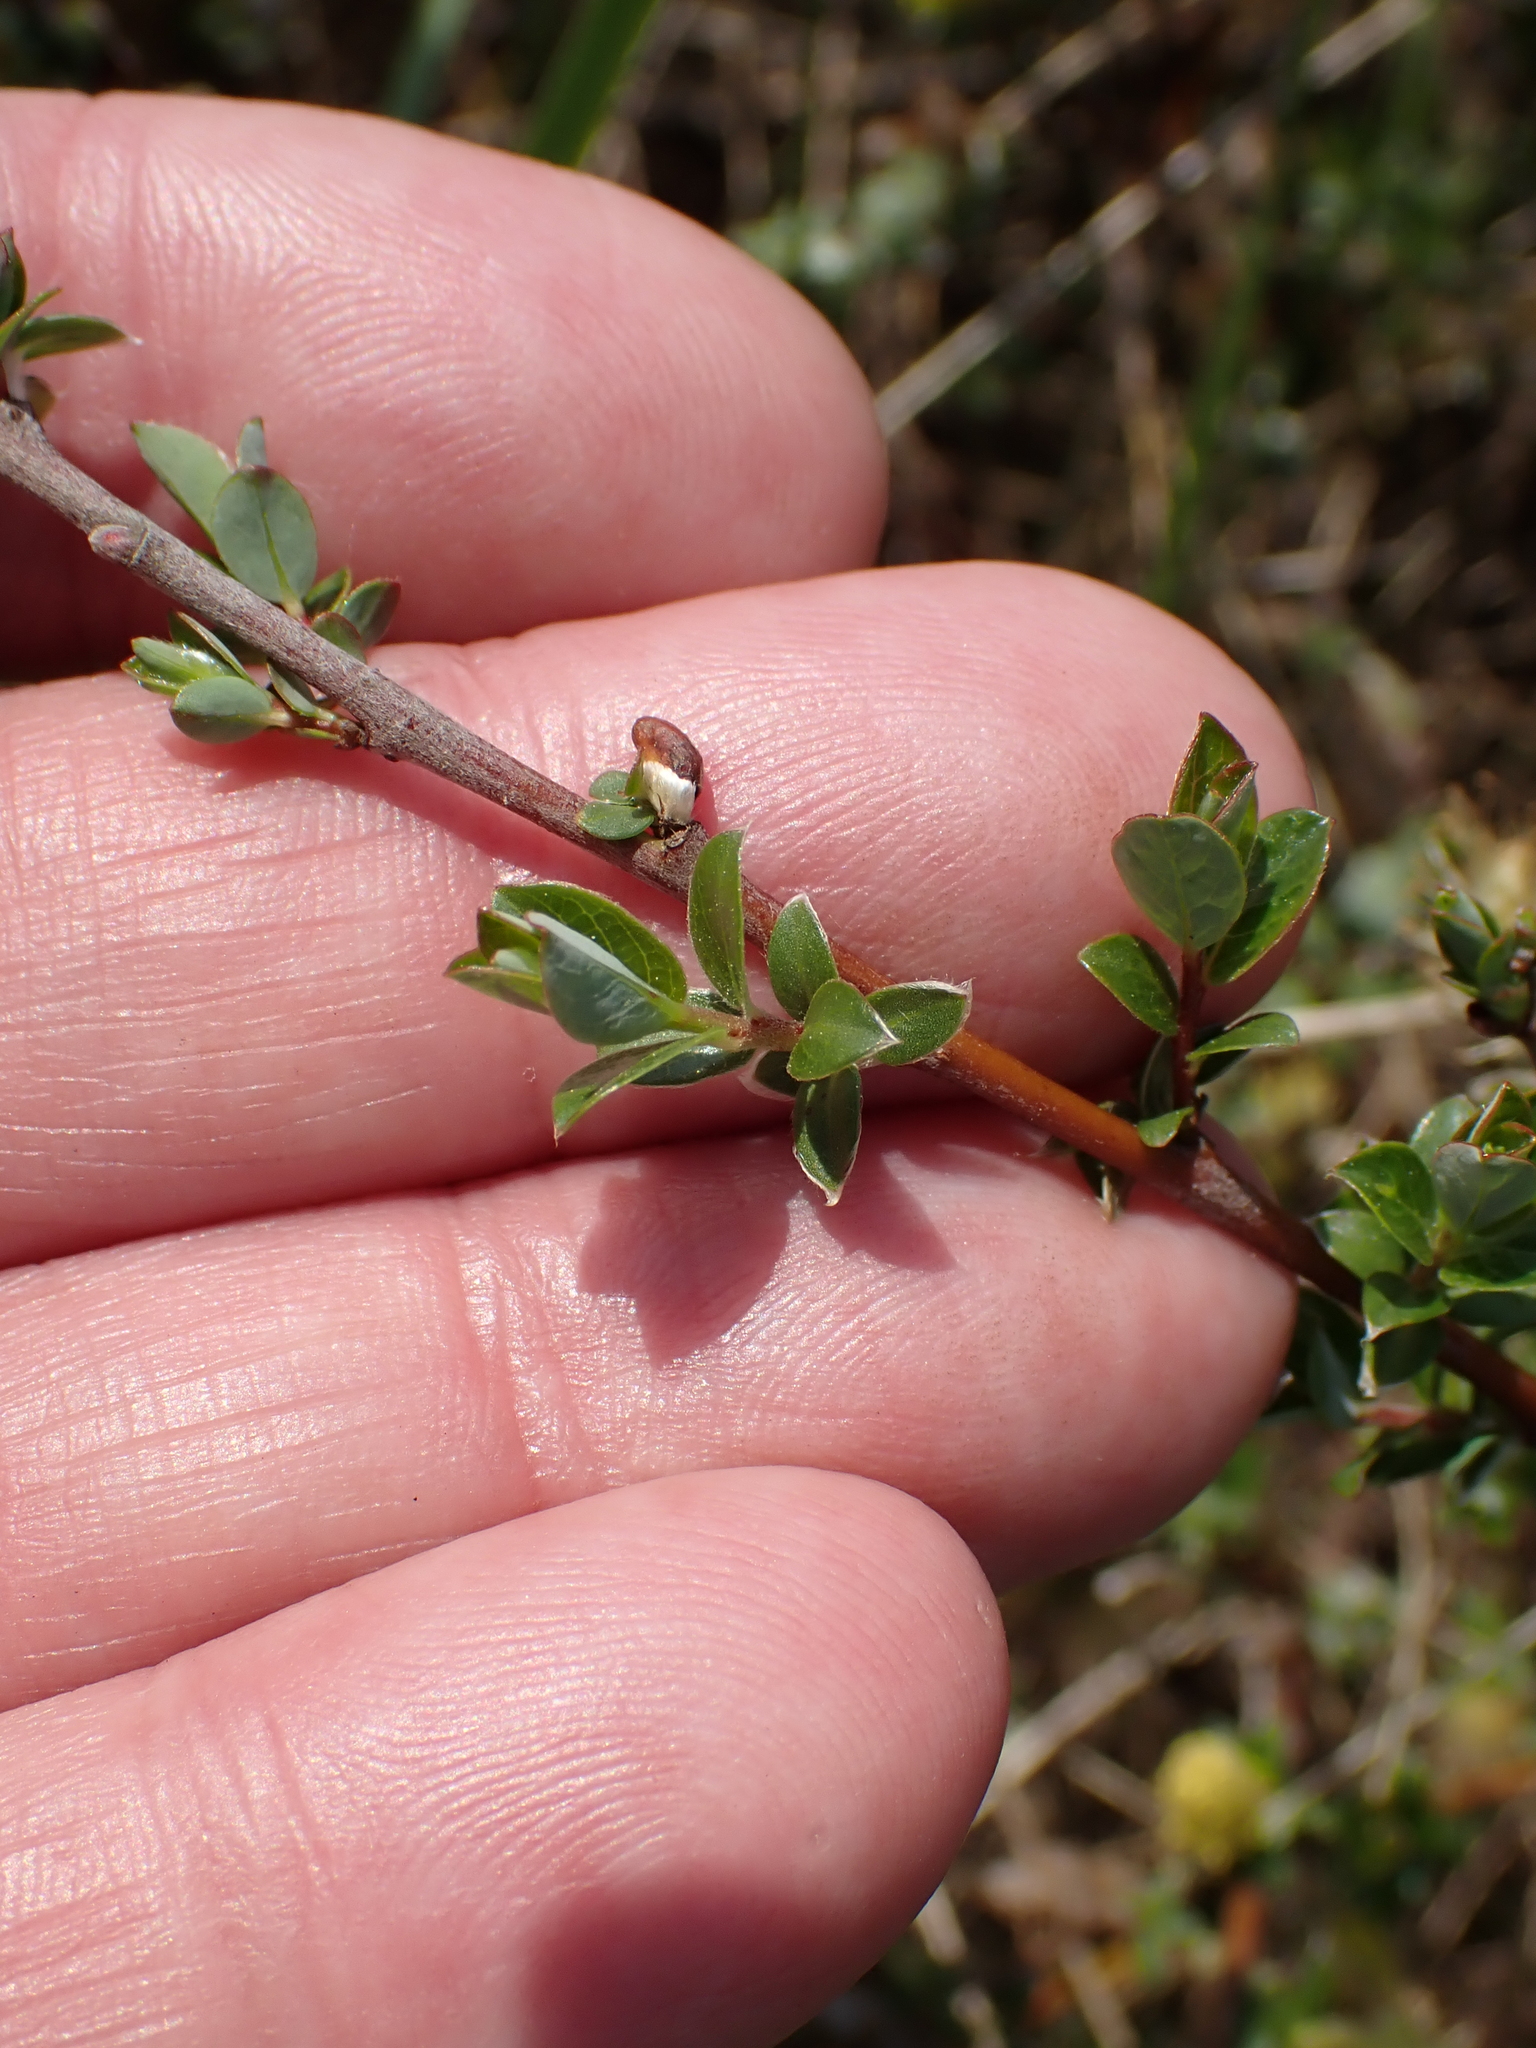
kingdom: Plantae
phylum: Tracheophyta
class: Magnoliopsida
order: Malpighiales
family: Salicaceae
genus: Salix
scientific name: Salix repens
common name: Creeping willow
